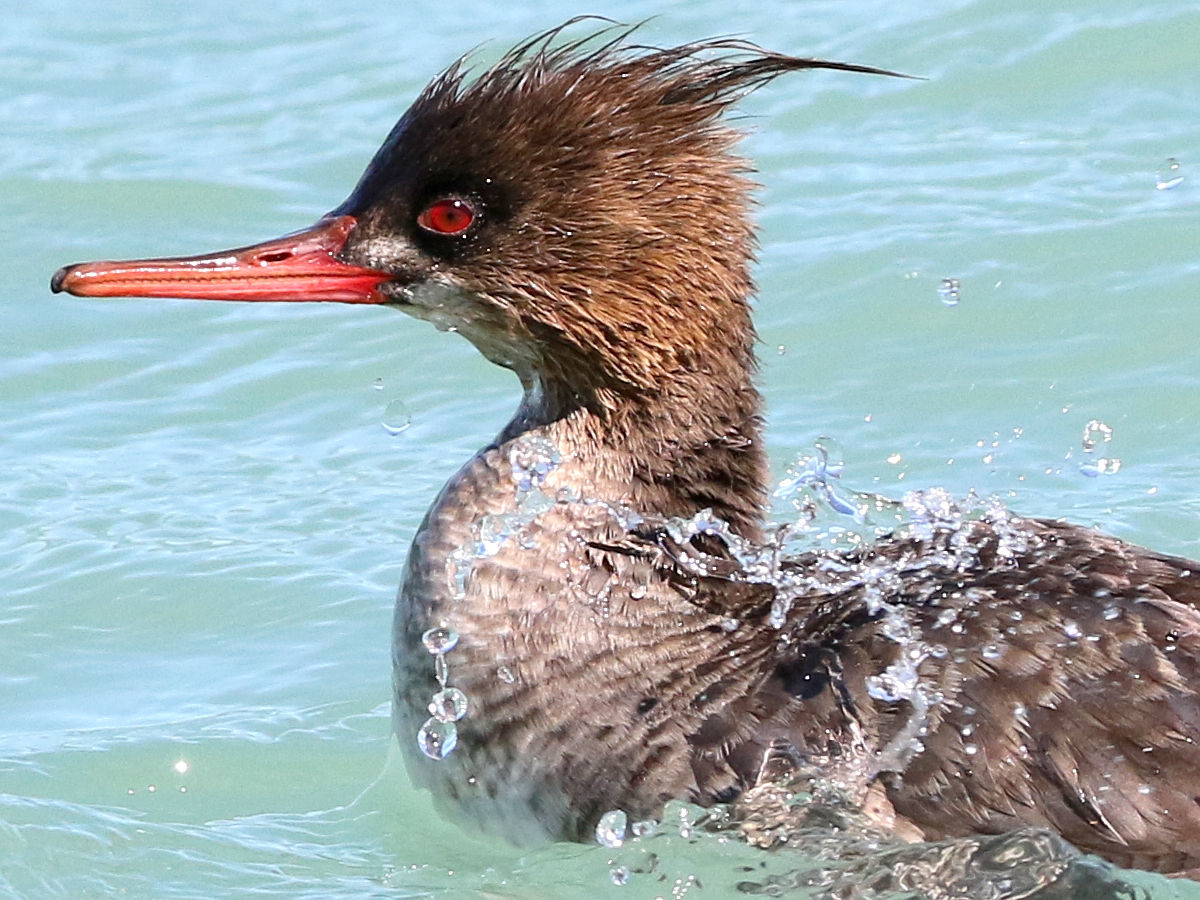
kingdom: Animalia
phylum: Chordata
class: Aves
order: Anseriformes
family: Anatidae
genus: Mergus
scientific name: Mergus serrator
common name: Red-breasted merganser
